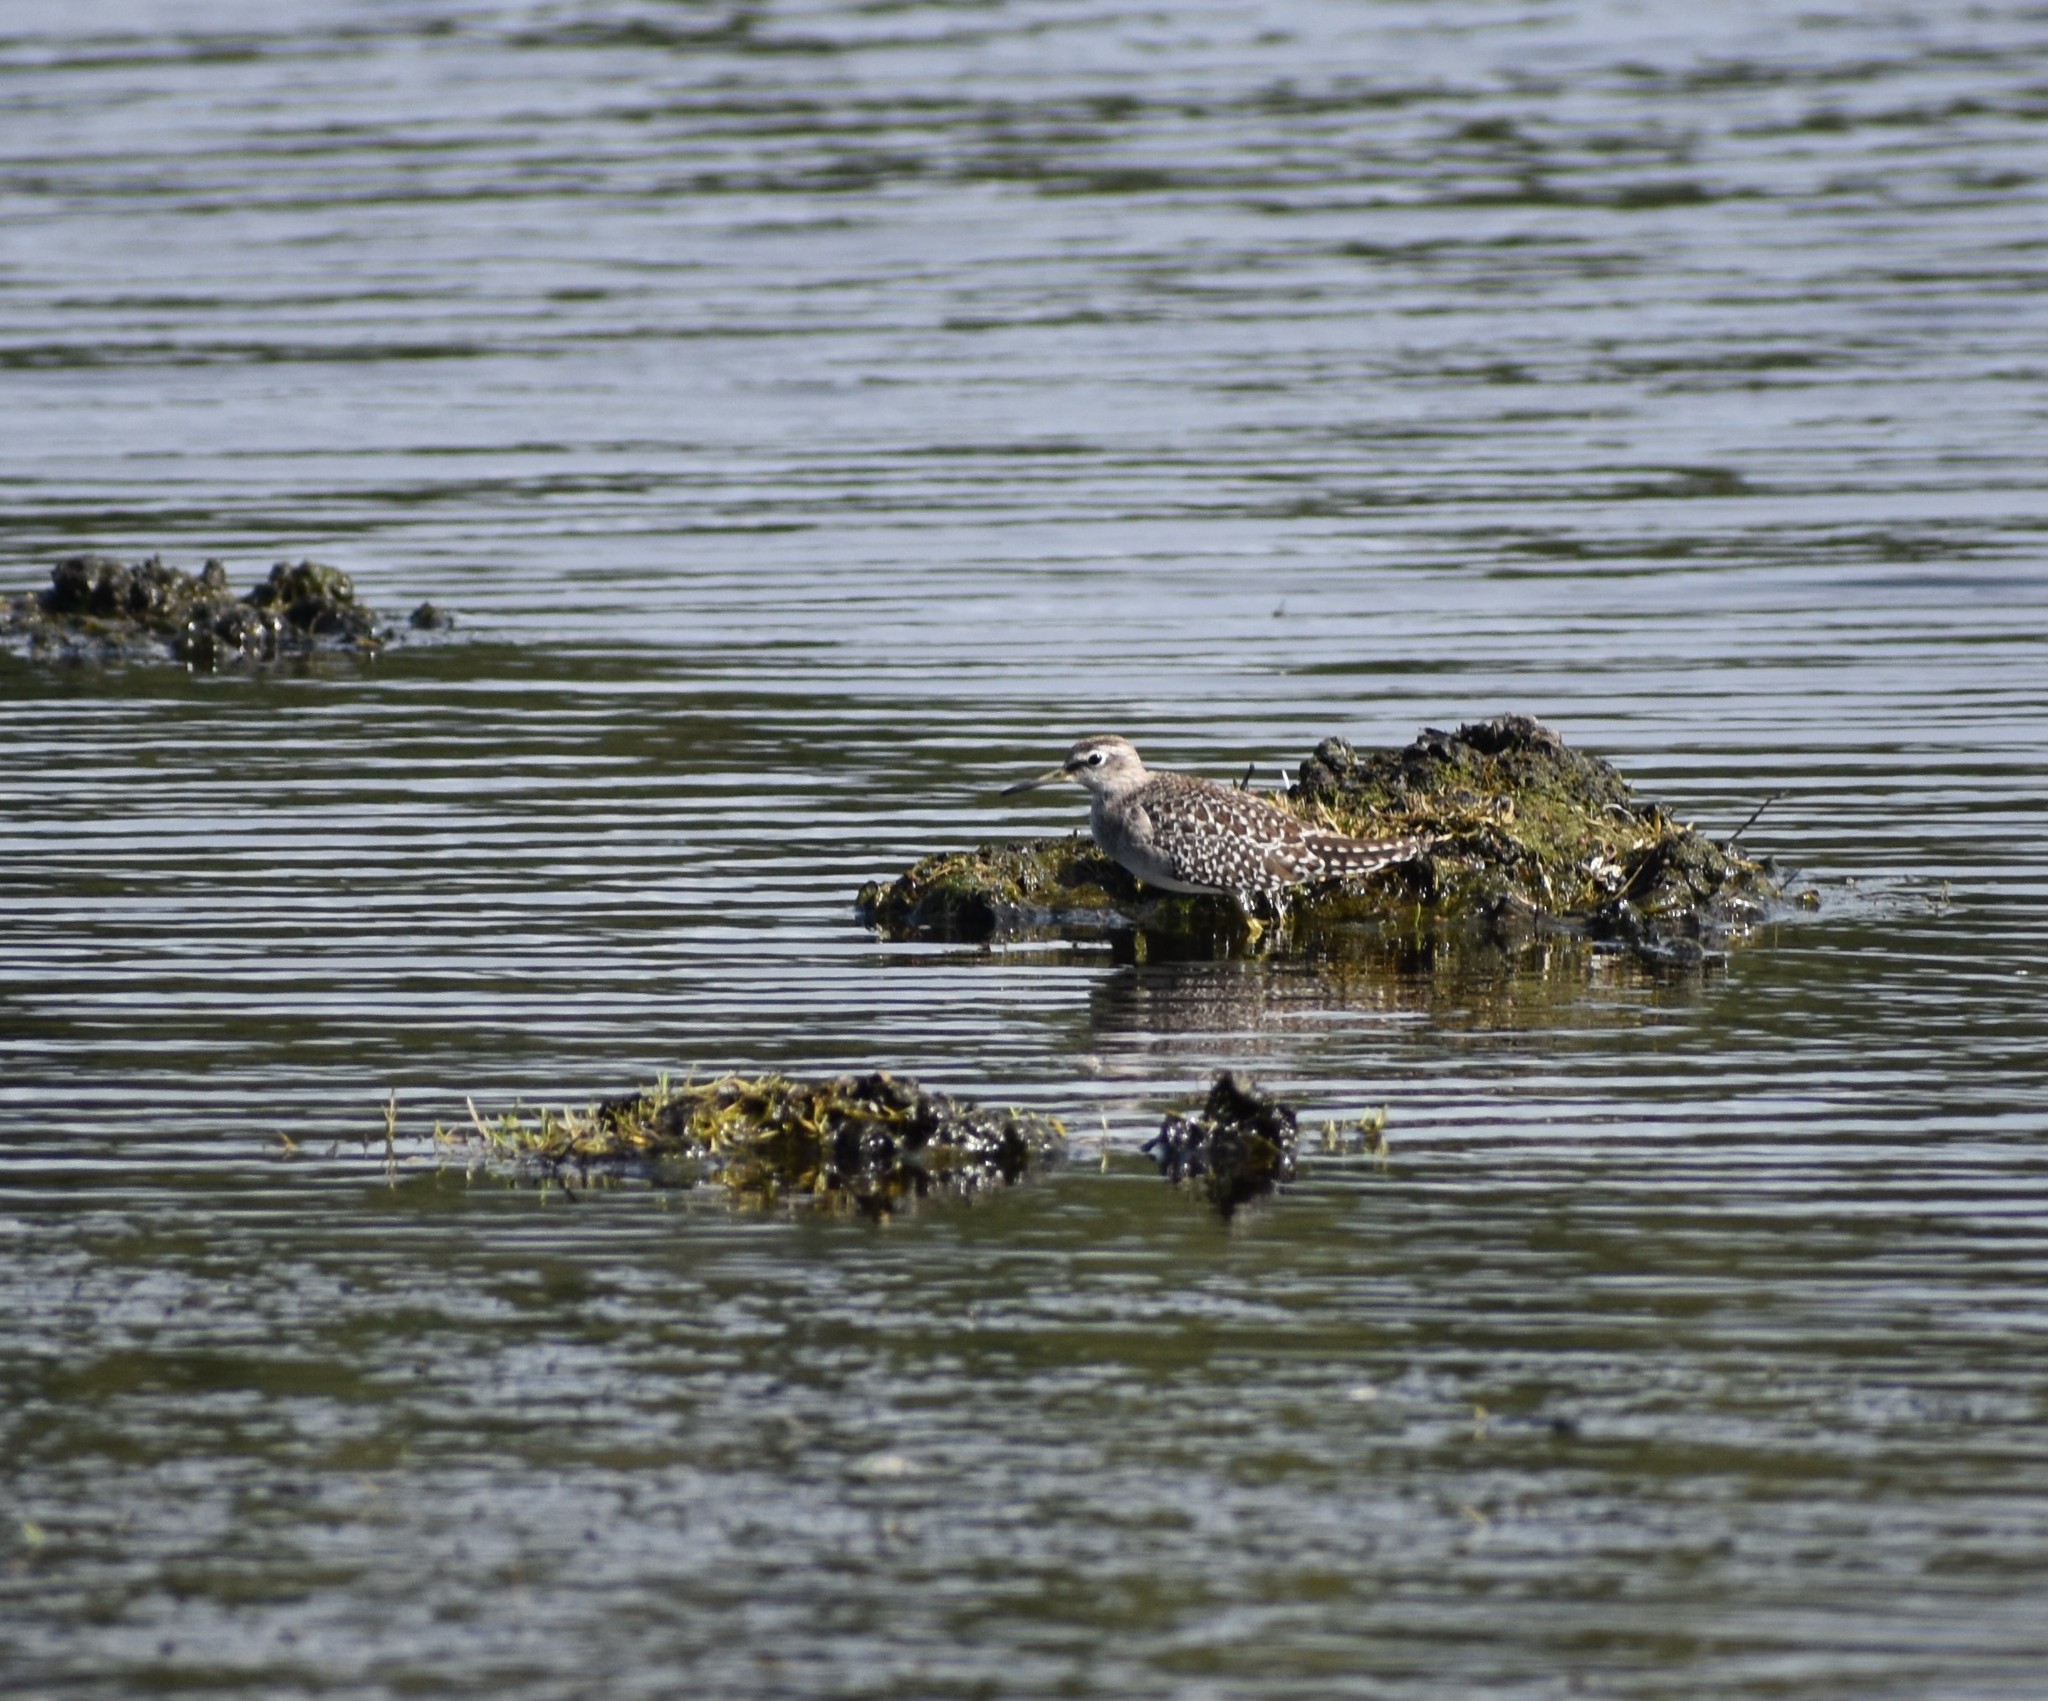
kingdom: Animalia
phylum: Chordata
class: Aves
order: Charadriiformes
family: Scolopacidae
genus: Tringa
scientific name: Tringa glareola
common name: Wood sandpiper
